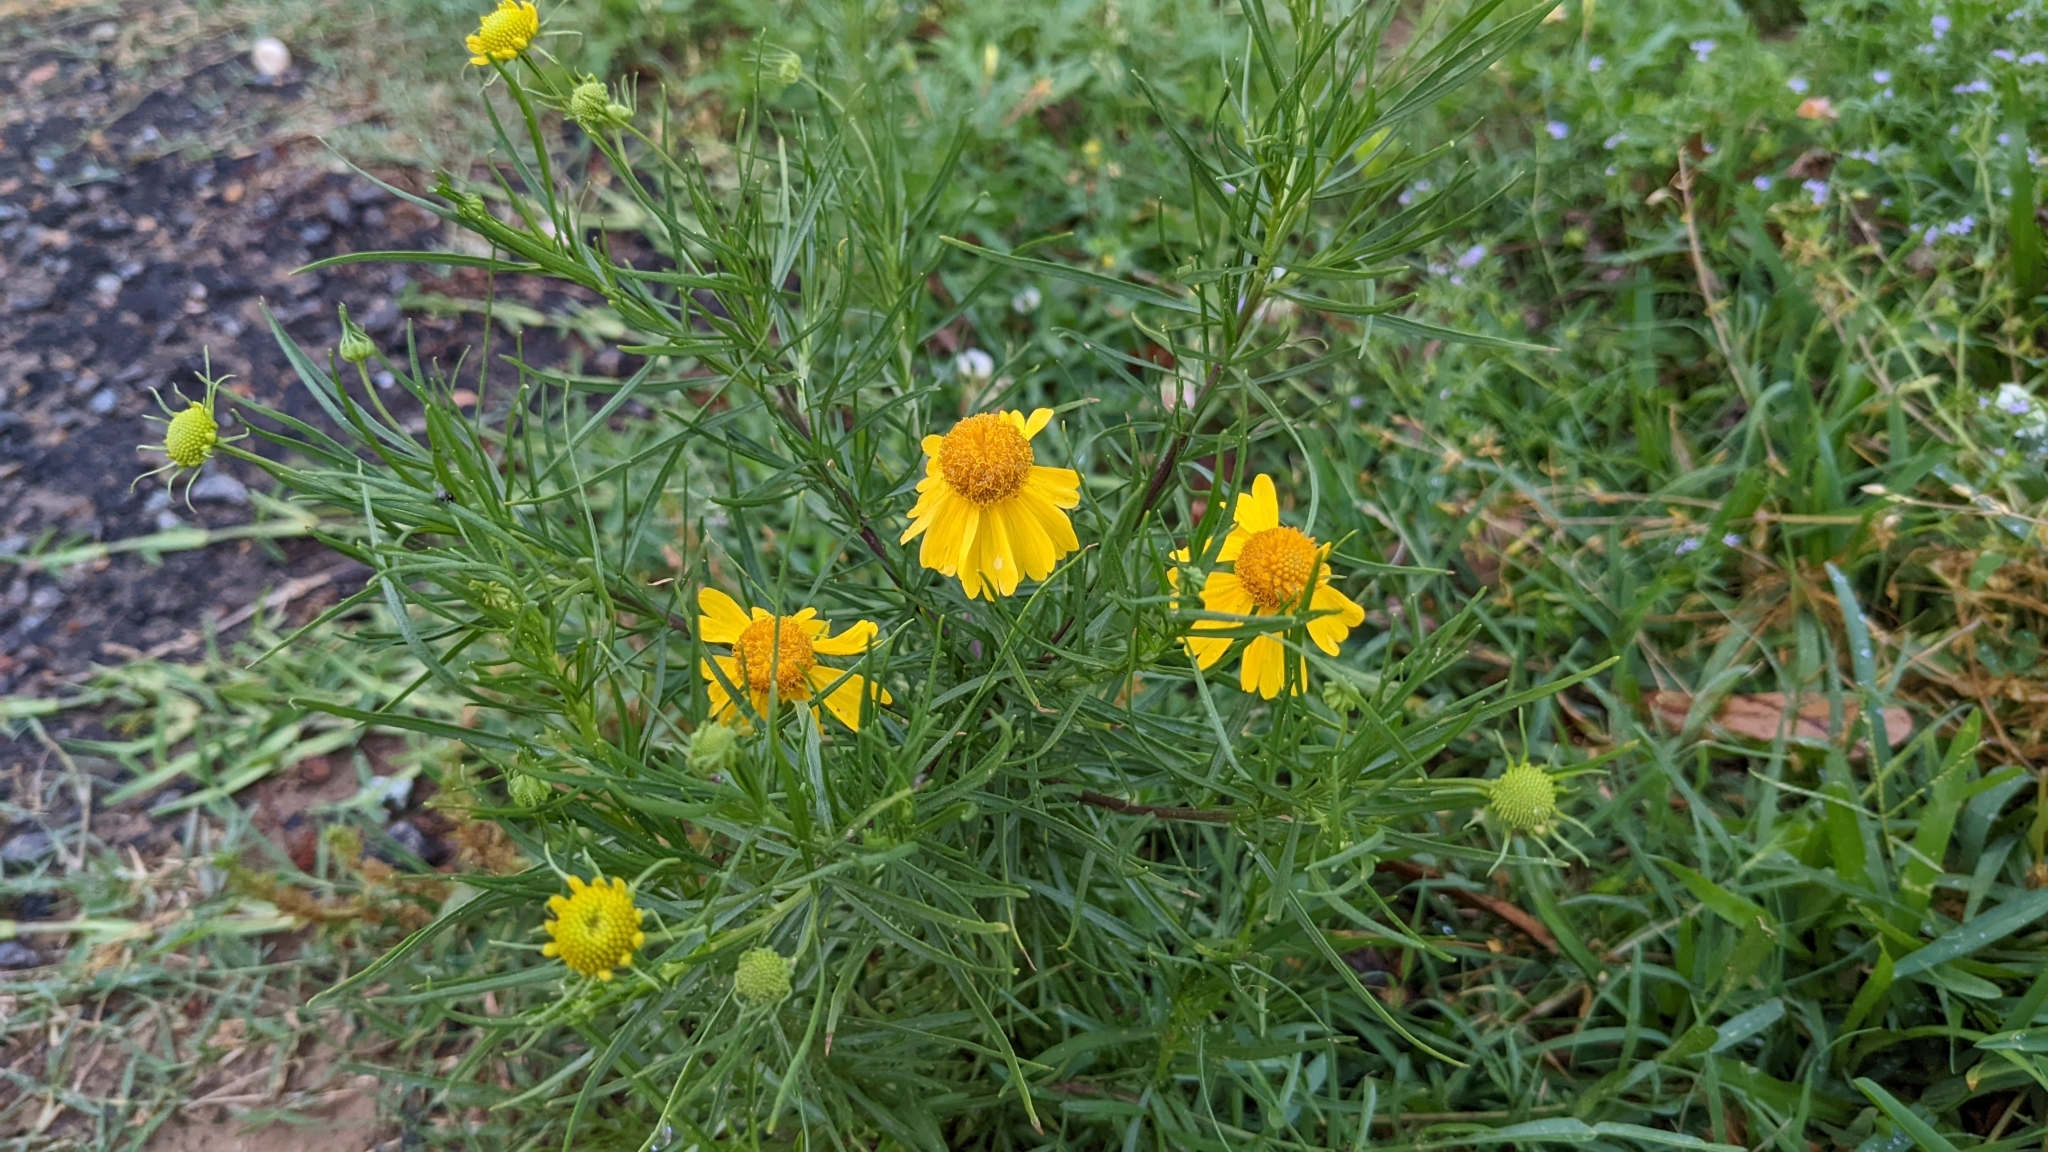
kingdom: Plantae
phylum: Tracheophyta
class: Magnoliopsida
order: Asterales
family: Asteraceae
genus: Helenium
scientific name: Helenium amarum
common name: Bitter sneezeweed
